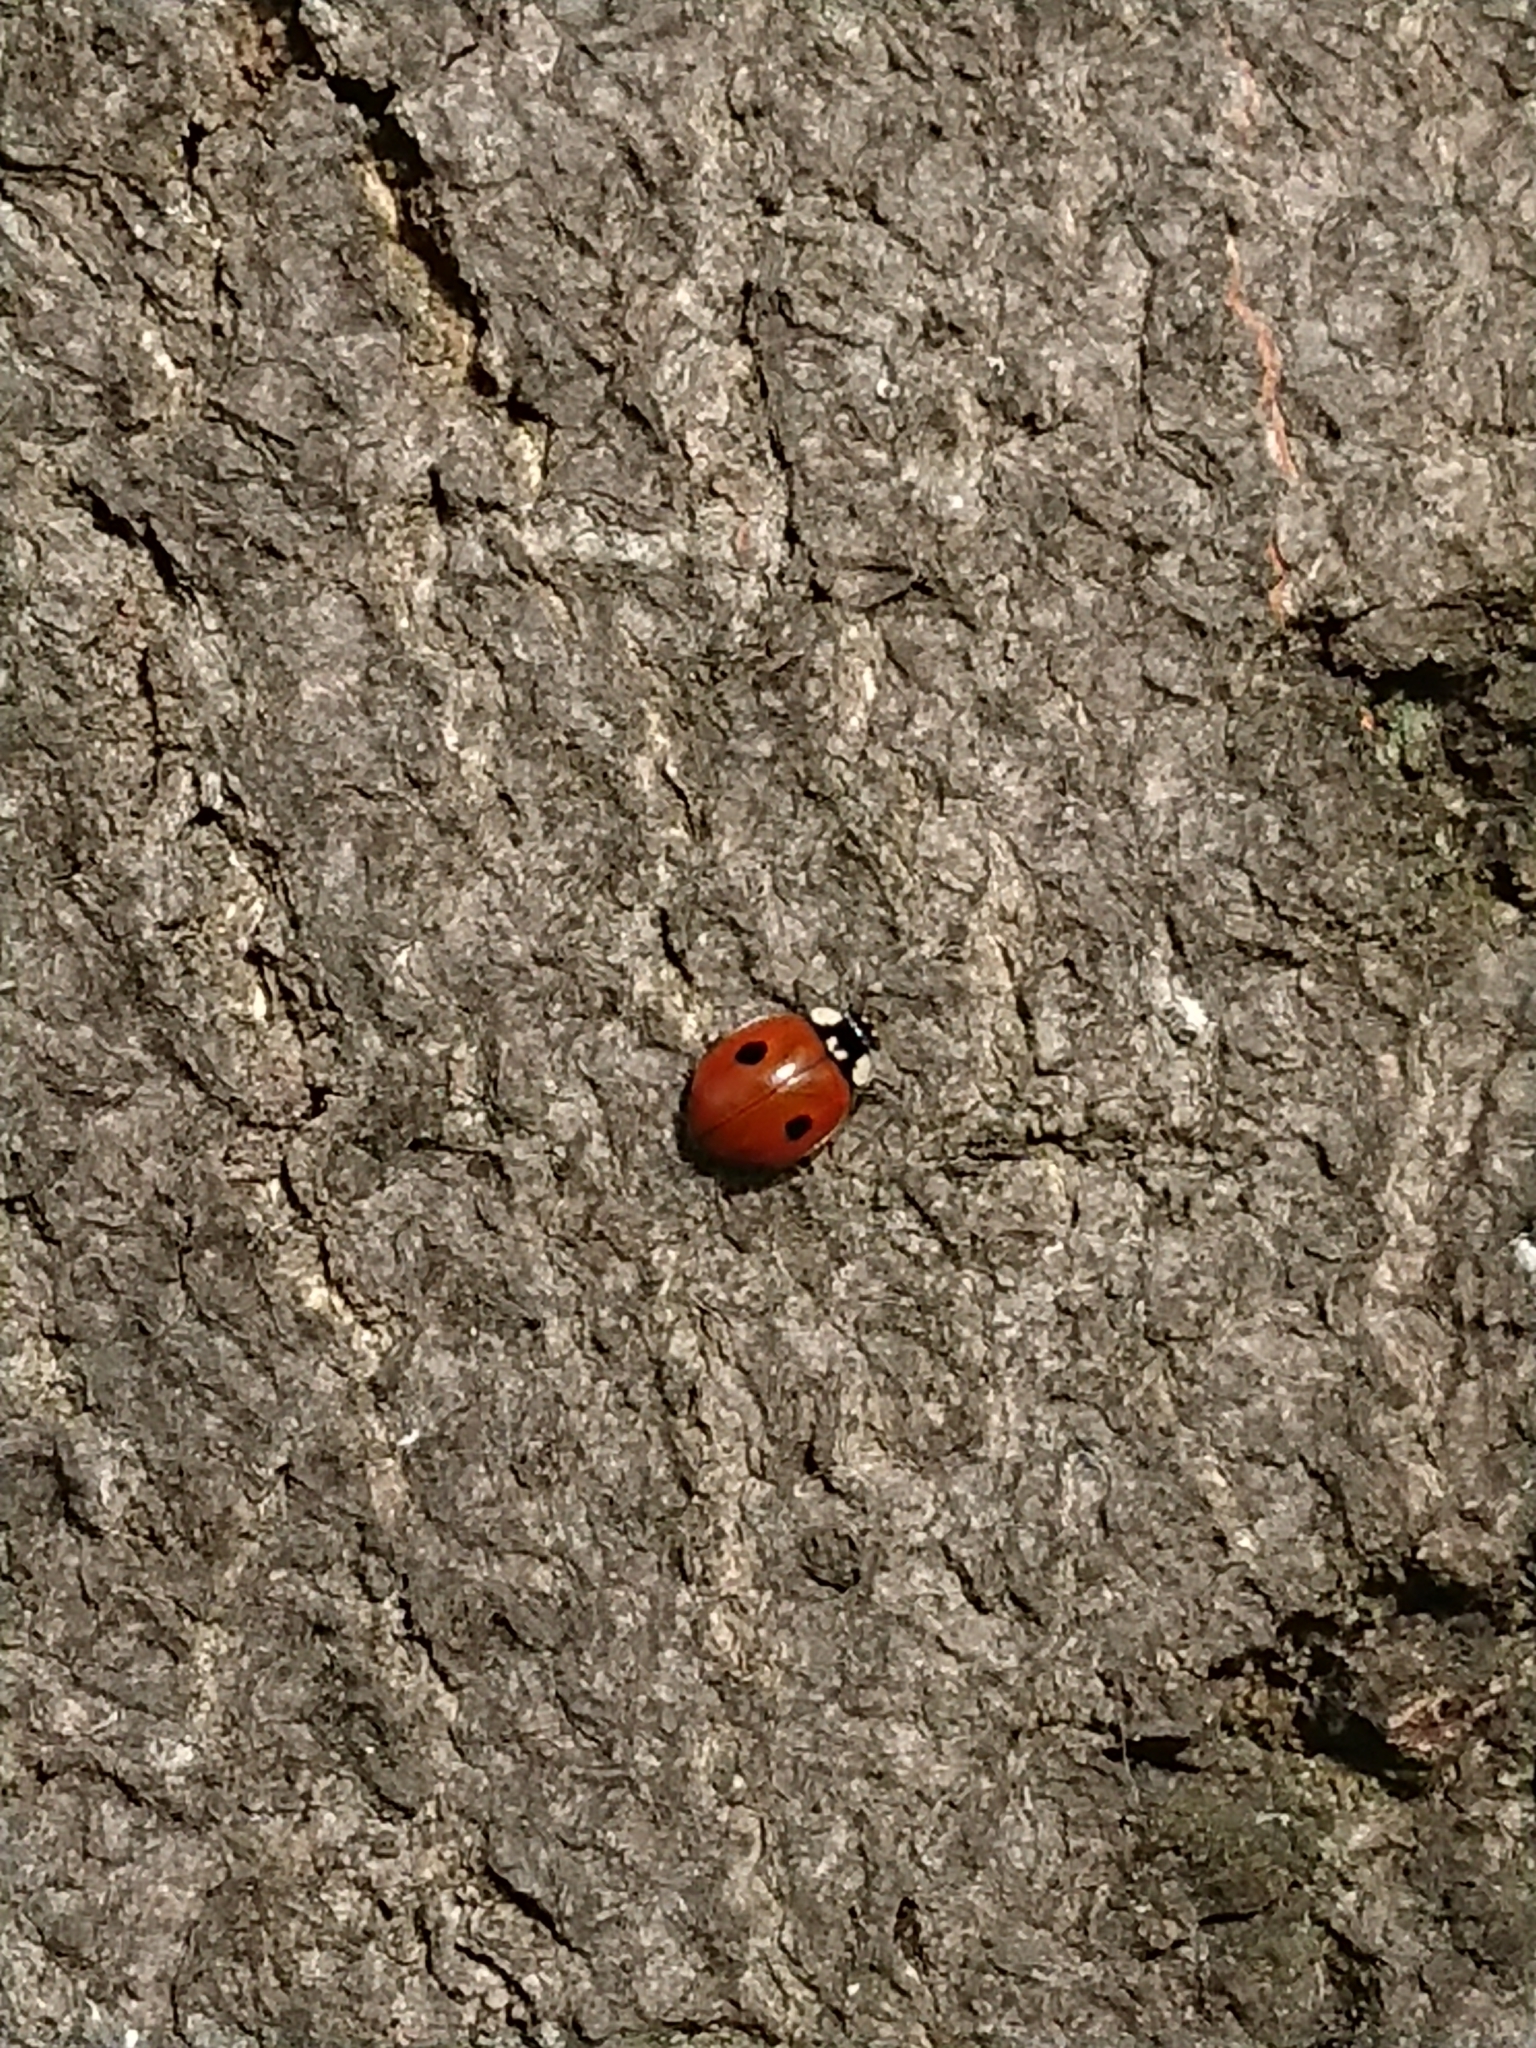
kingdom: Animalia
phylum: Arthropoda
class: Insecta
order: Coleoptera
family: Coccinellidae
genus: Adalia
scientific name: Adalia bipunctata
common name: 2-spot ladybird
